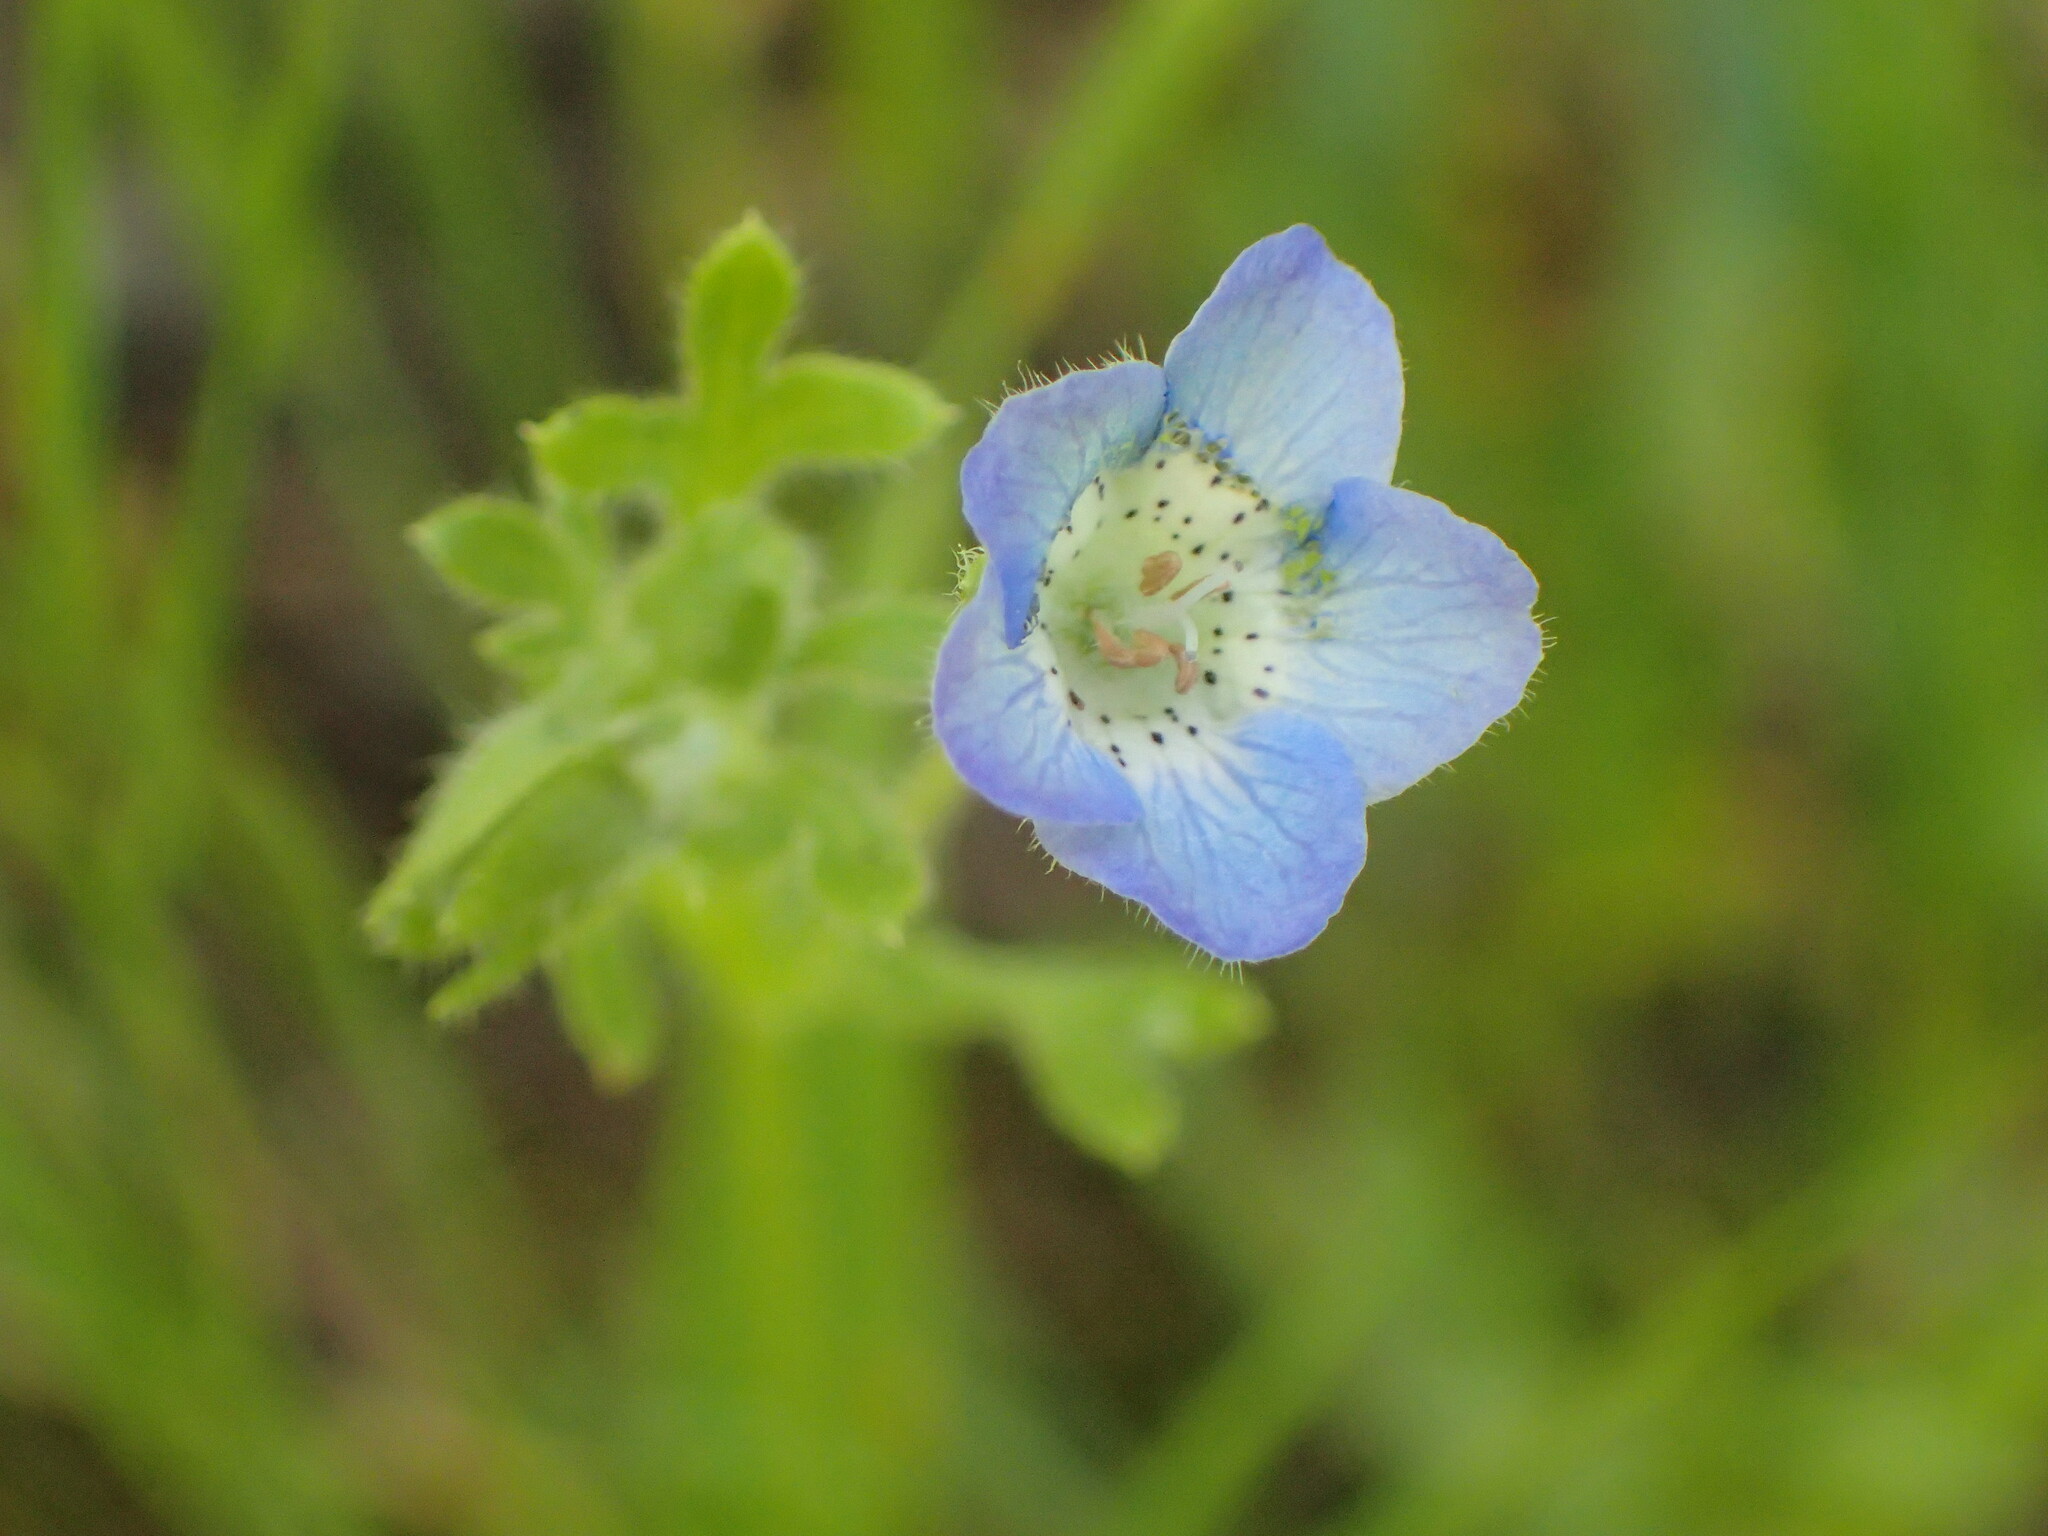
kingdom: Plantae
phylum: Tracheophyta
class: Magnoliopsida
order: Boraginales
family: Hydrophyllaceae
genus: Nemophila
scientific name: Nemophila menziesii
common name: Baby's-blue-eyes
